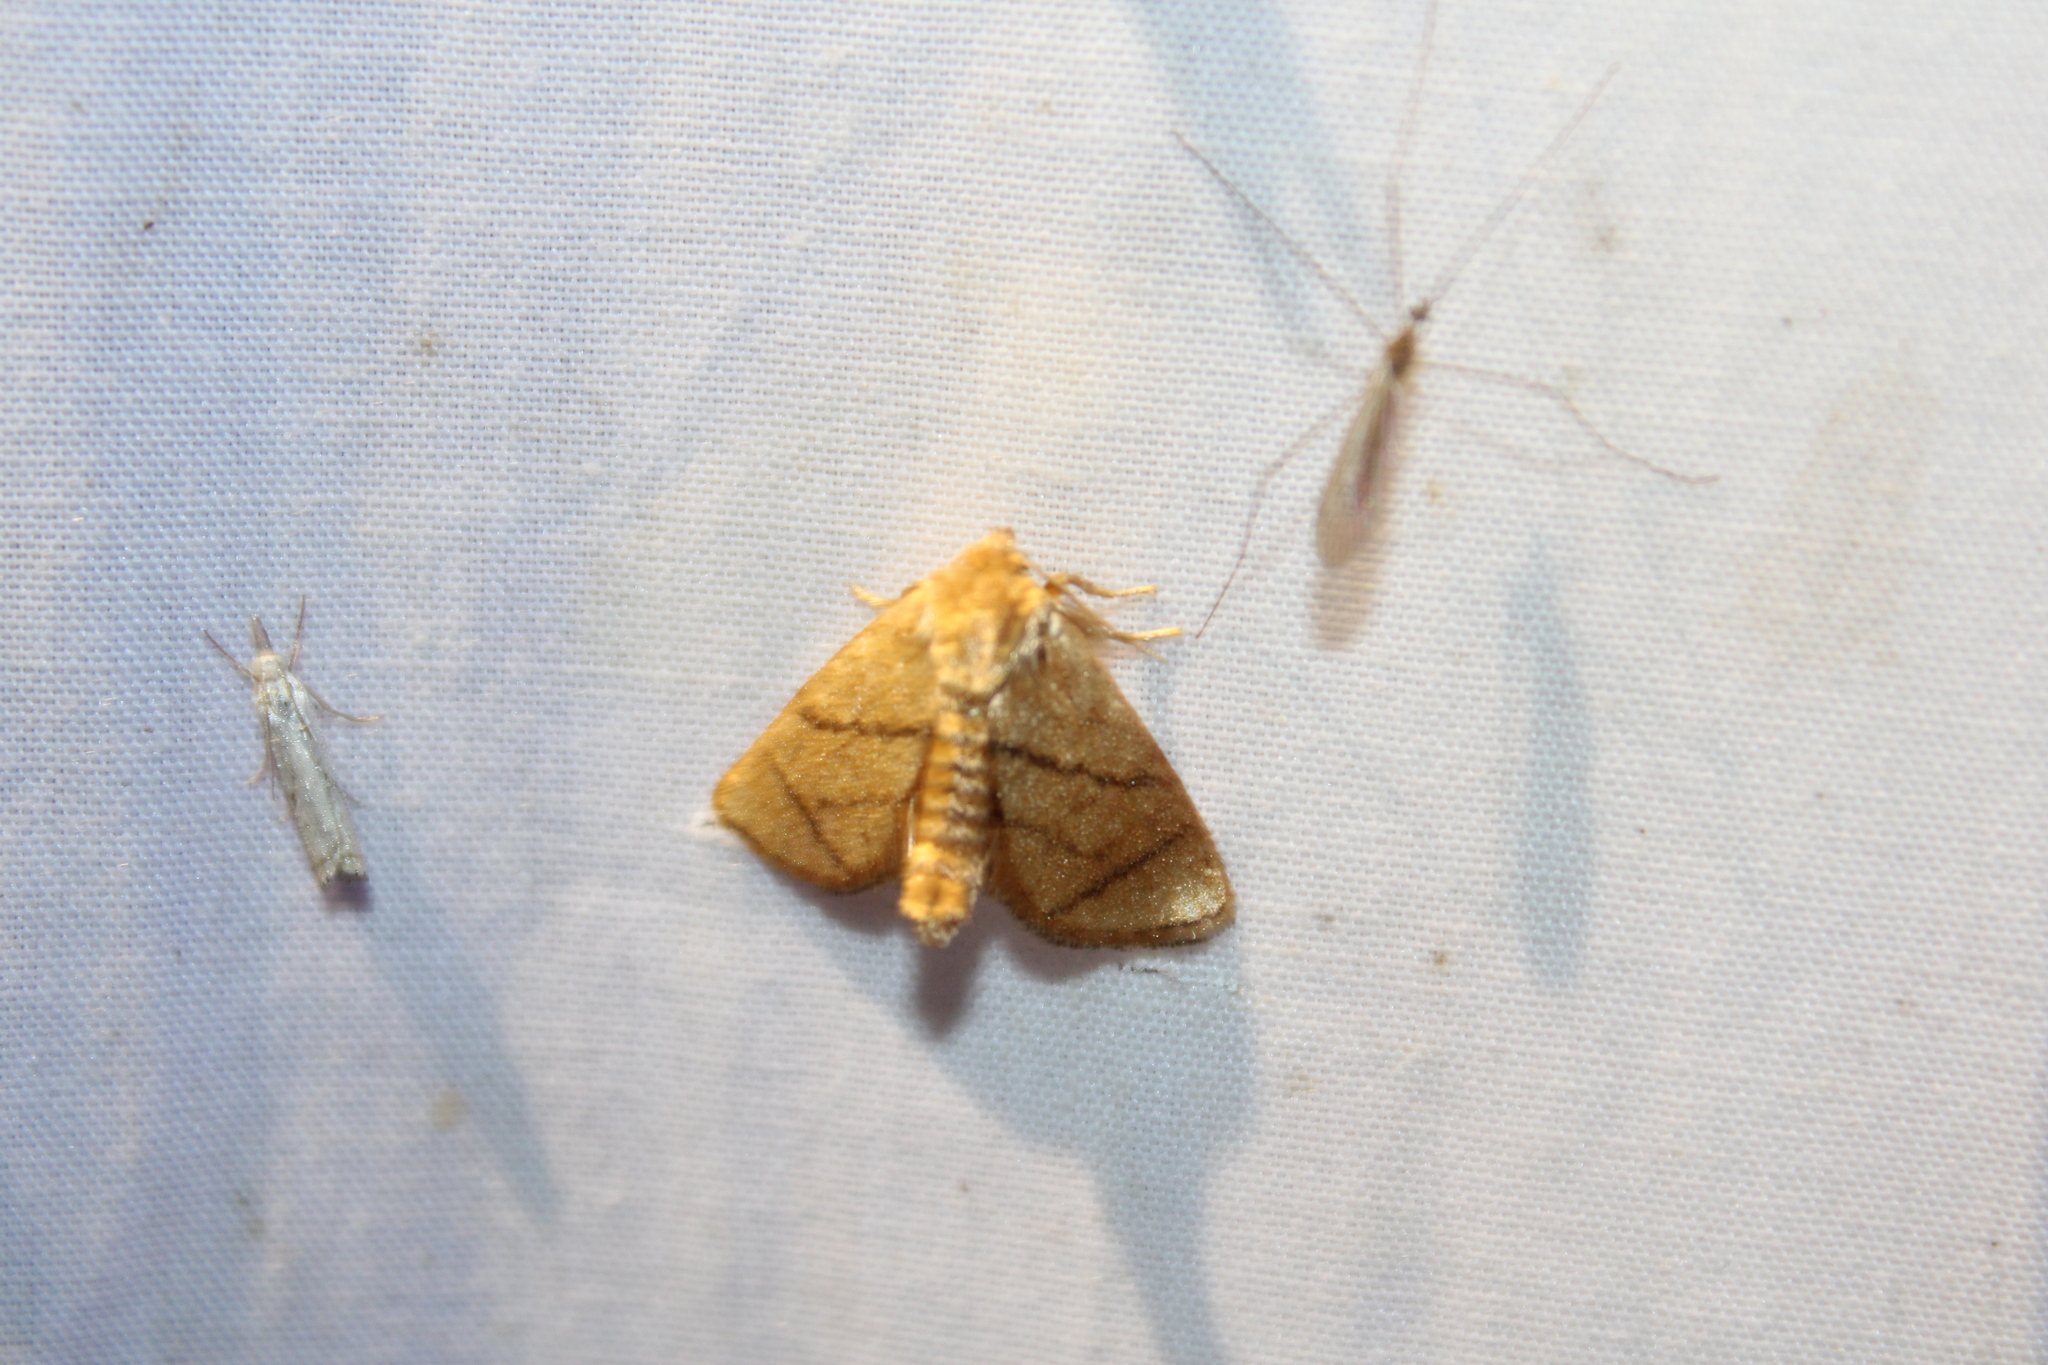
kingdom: Animalia
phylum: Arthropoda
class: Insecta
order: Lepidoptera
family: Limacodidae
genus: Apoda
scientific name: Apoda y-inversa
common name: Yellow-collared slug moth
